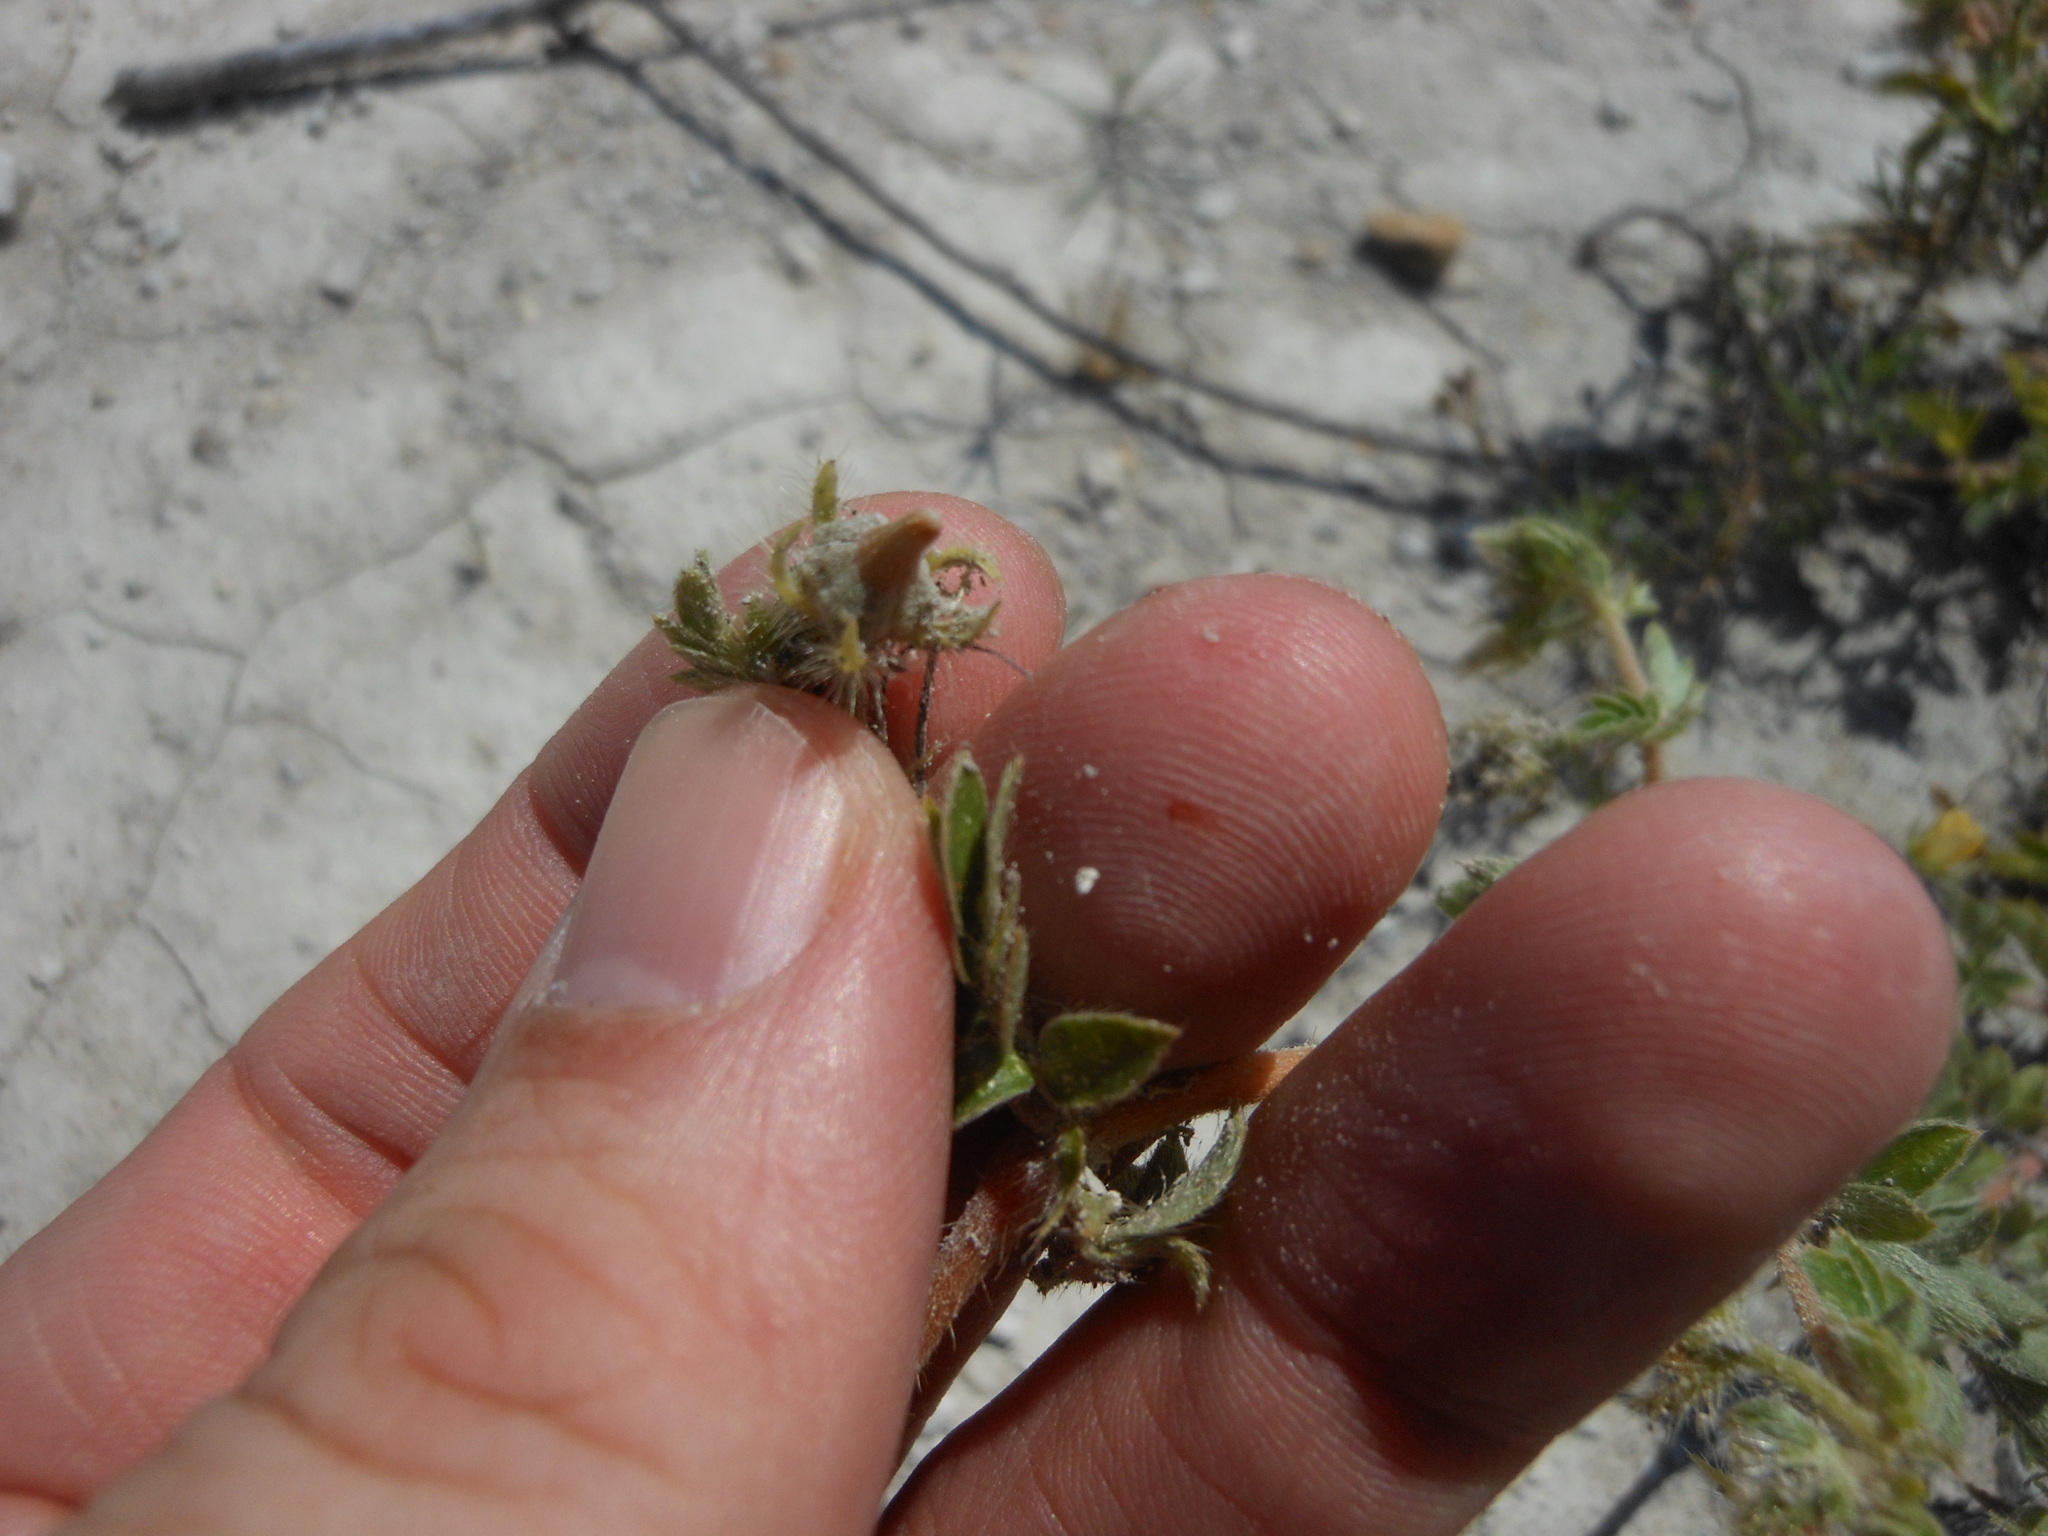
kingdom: Plantae
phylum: Tracheophyta
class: Magnoliopsida
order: Zygophyllales
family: Zygophyllaceae
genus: Kallstroemia
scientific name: Kallstroemia parviflora
